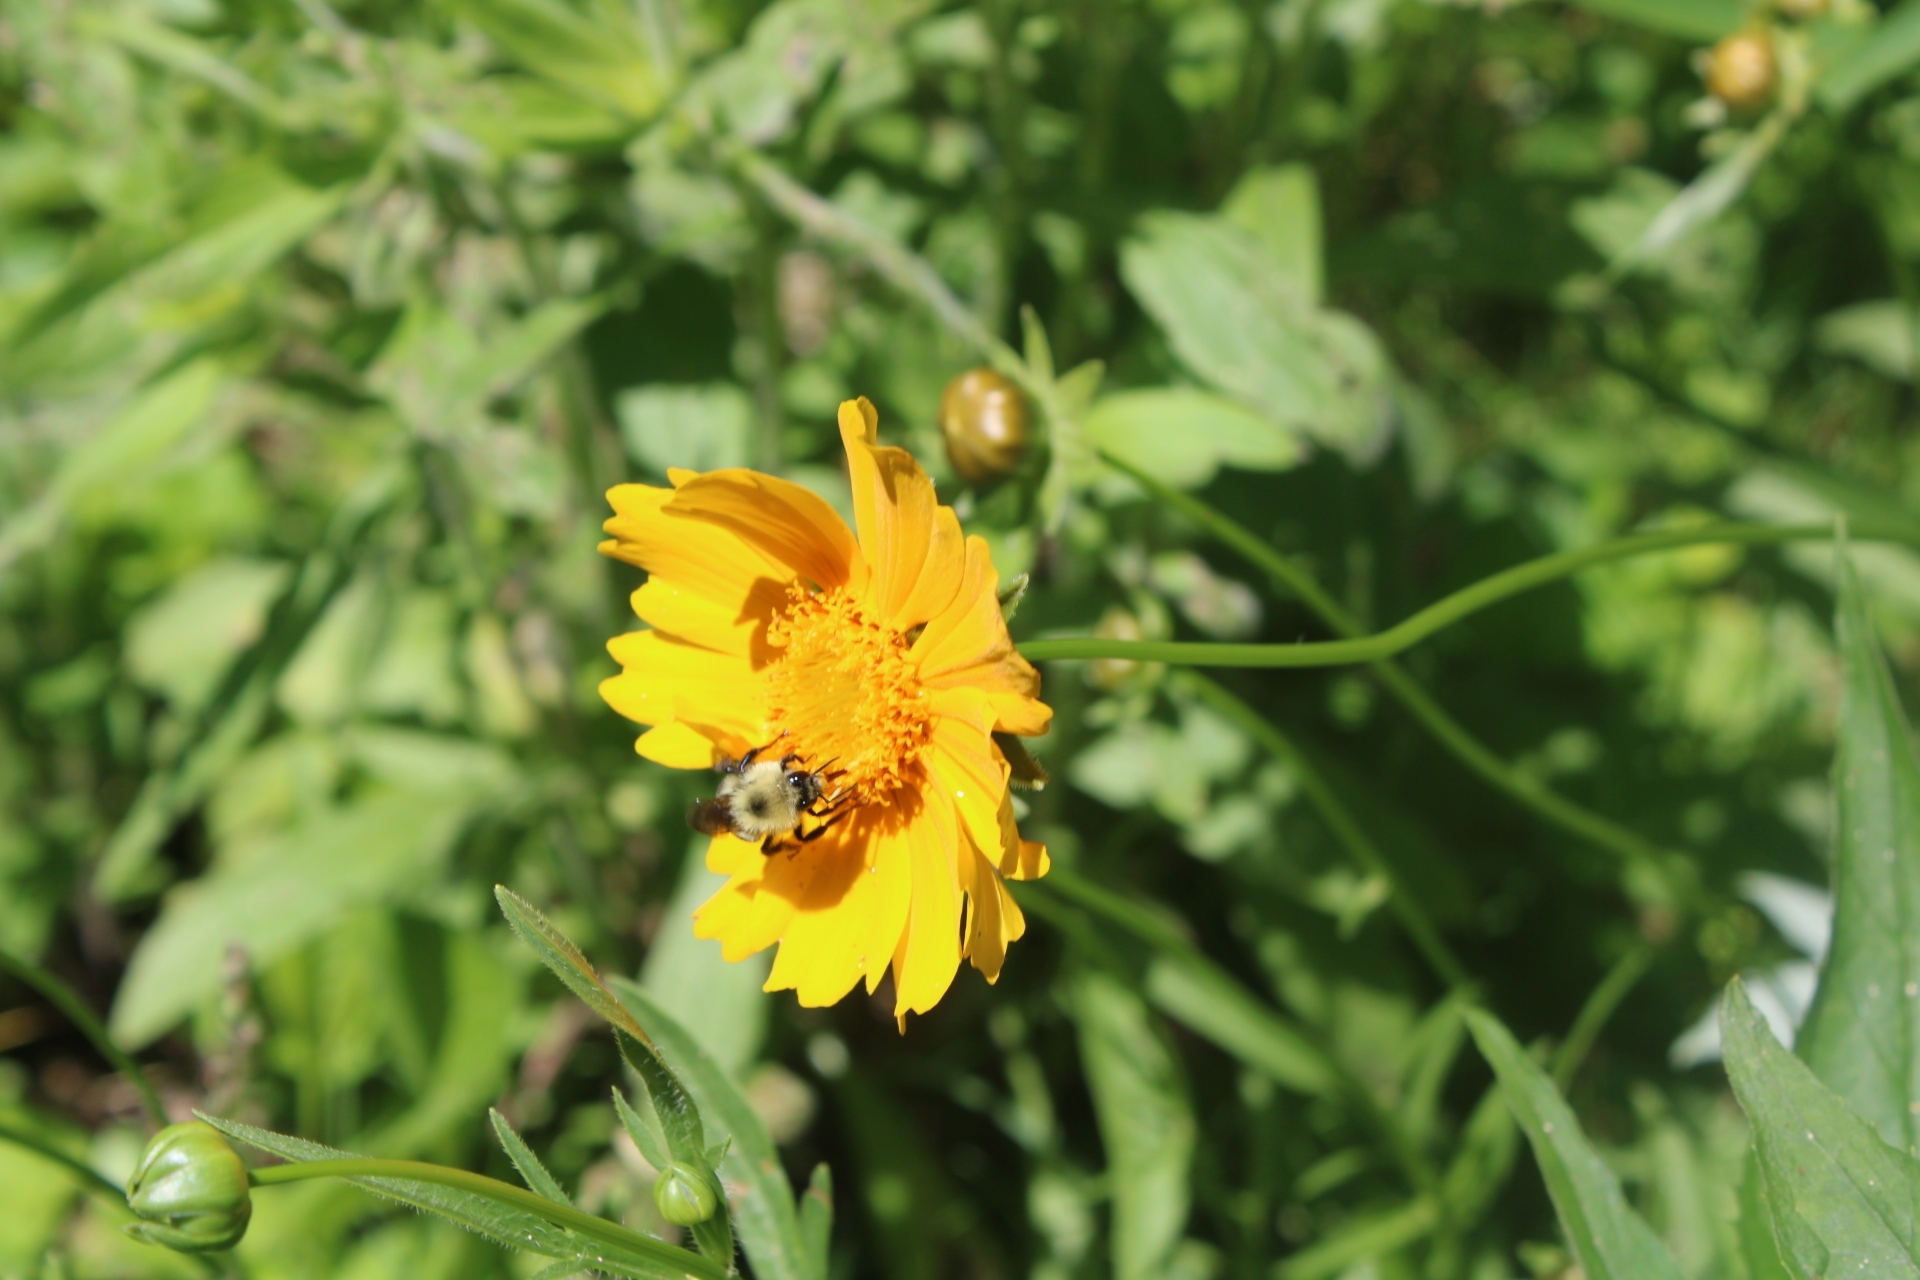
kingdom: Animalia
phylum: Arthropoda
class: Insecta
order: Hymenoptera
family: Apidae
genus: Bombus
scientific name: Bombus bimaculatus
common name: Two-spotted bumble bee
